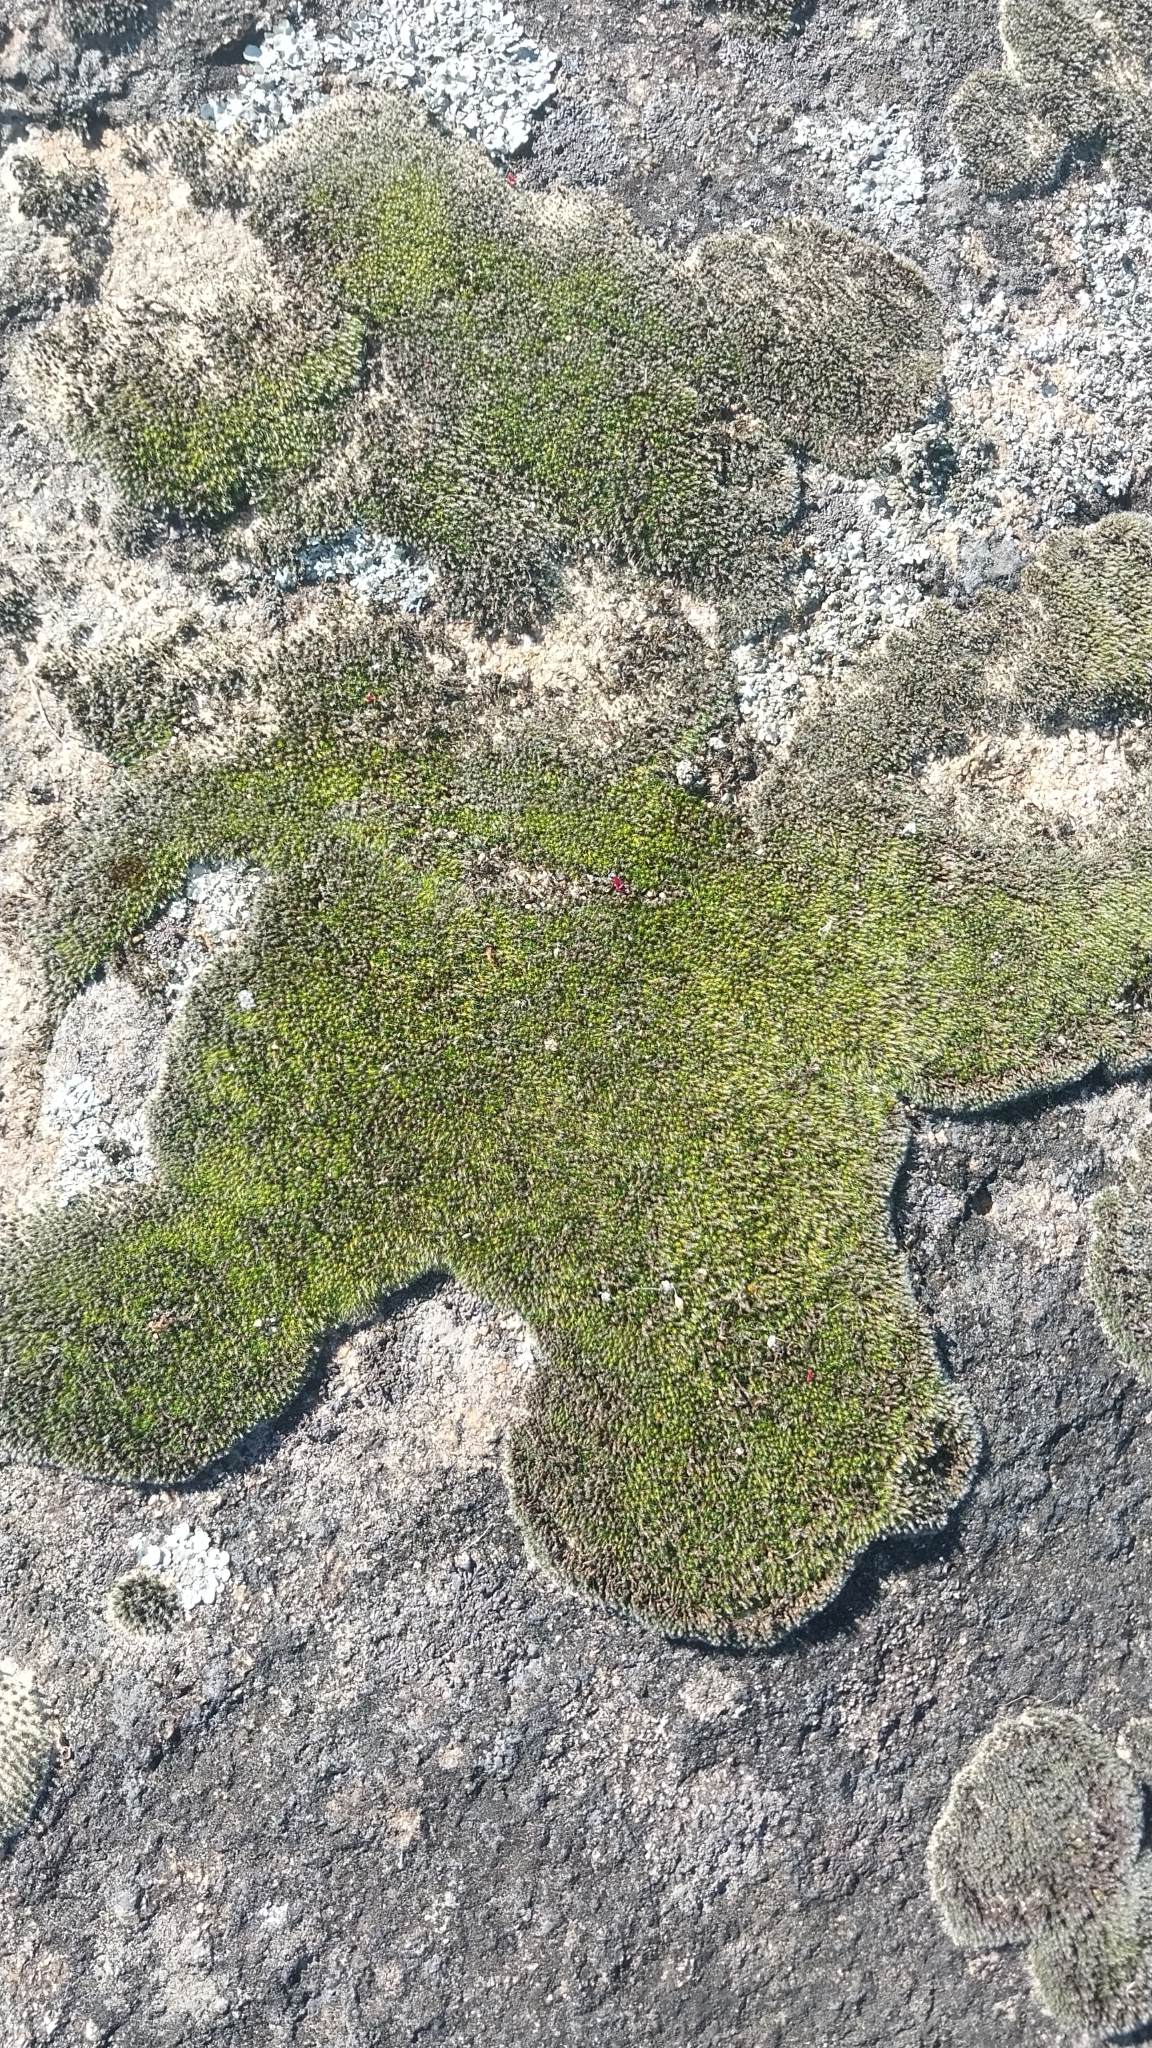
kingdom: Plantae
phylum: Bryophyta
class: Bryopsida
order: Grimmiales
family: Grimmiaceae
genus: Grimmia
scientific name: Grimmia laevigata
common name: Hoary grimmia
